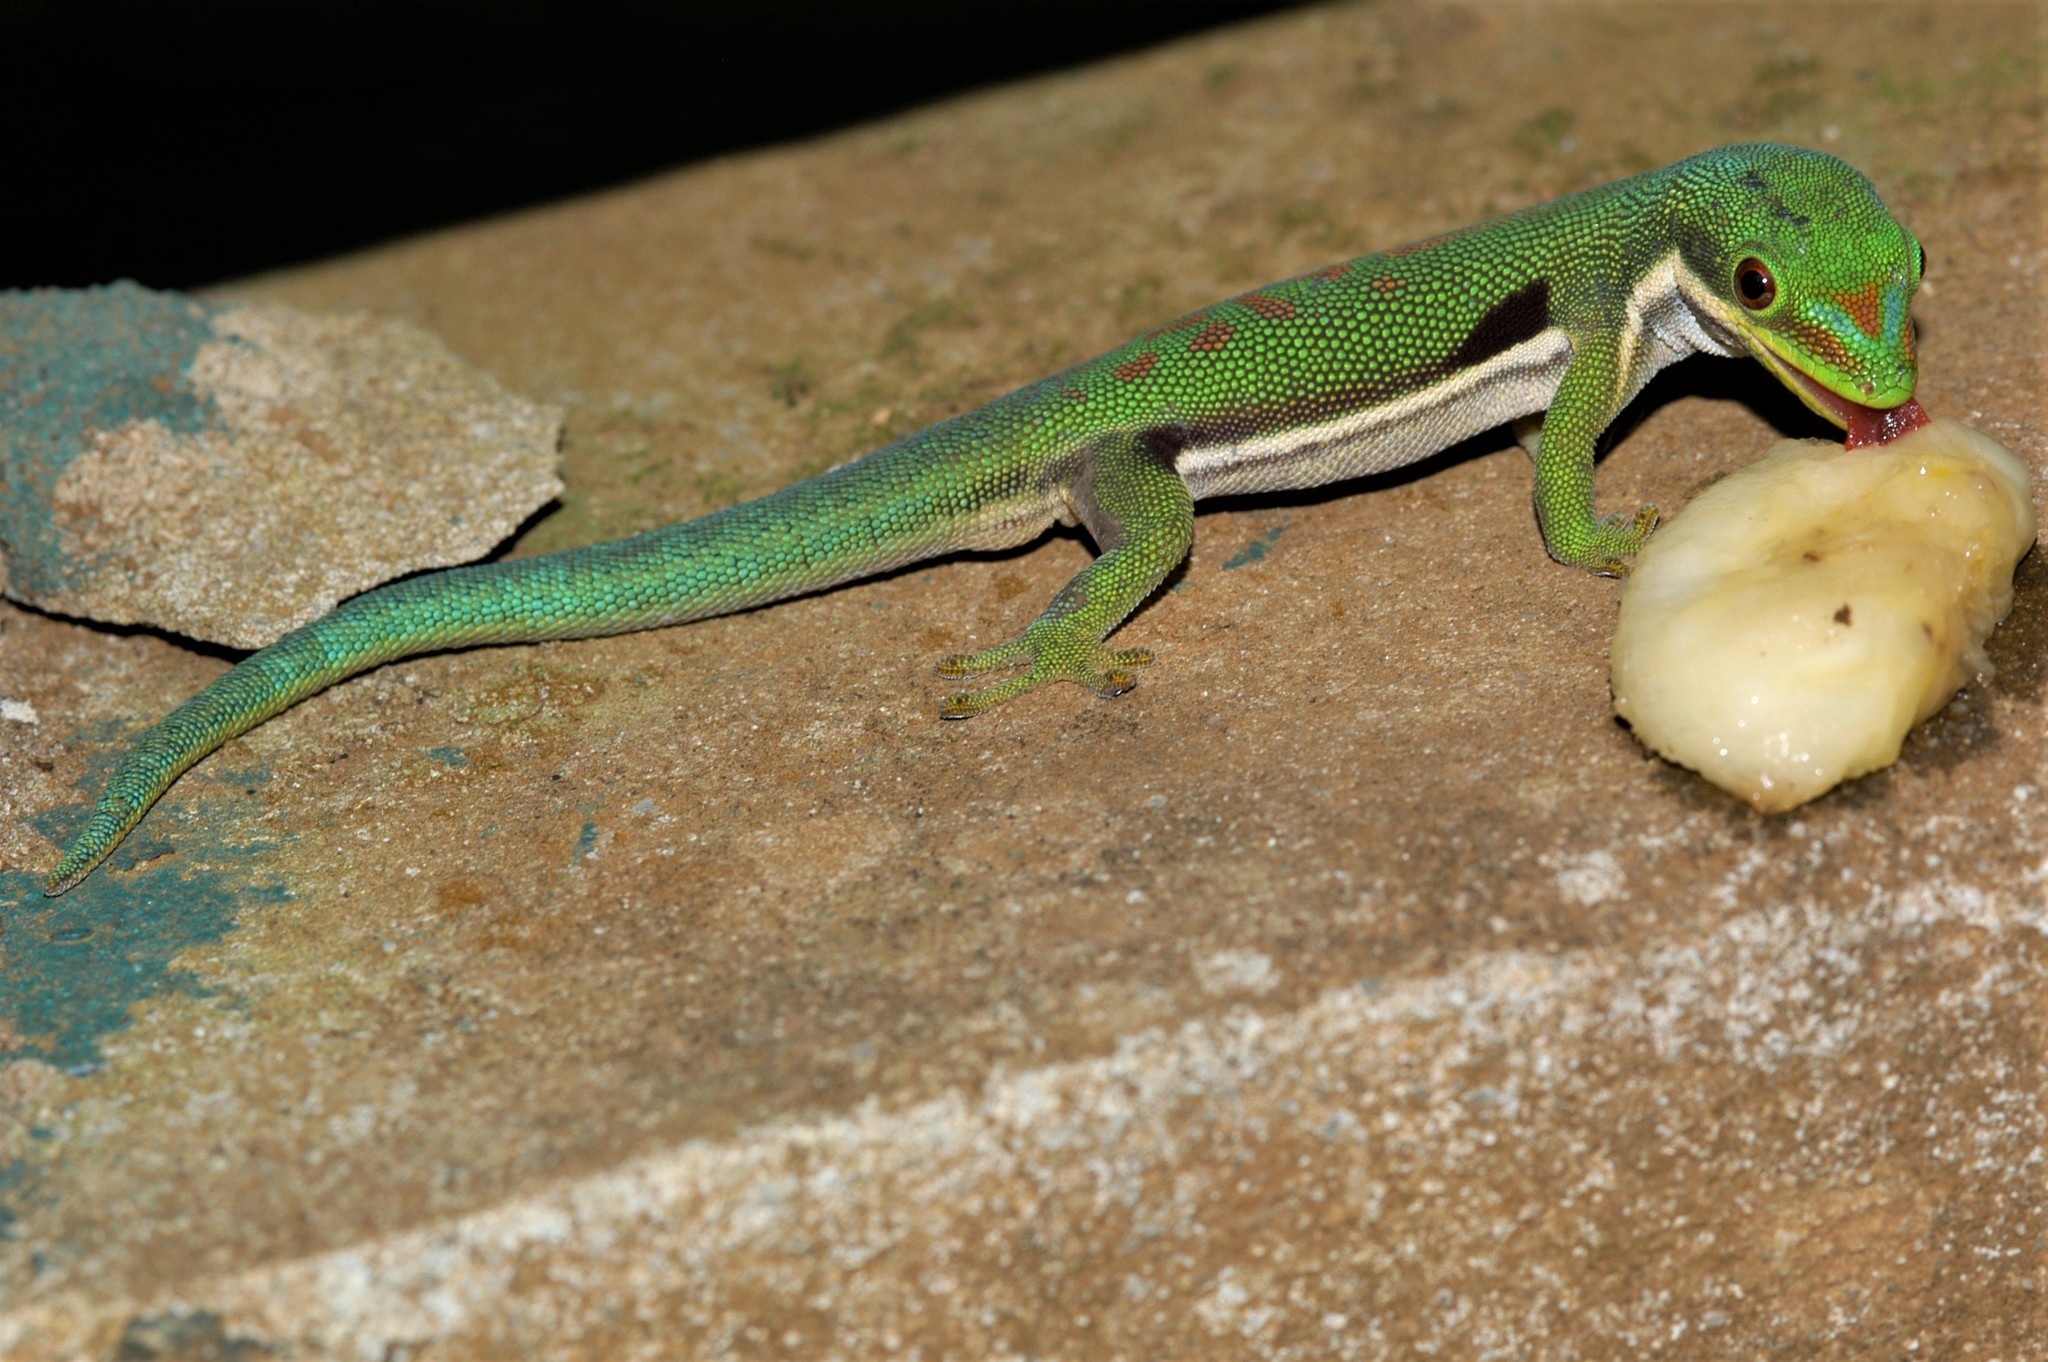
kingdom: Animalia
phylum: Chordata
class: Squamata
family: Gekkonidae
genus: Phelsuma
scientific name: Phelsuma dorsivittata
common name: Striped day gecko
